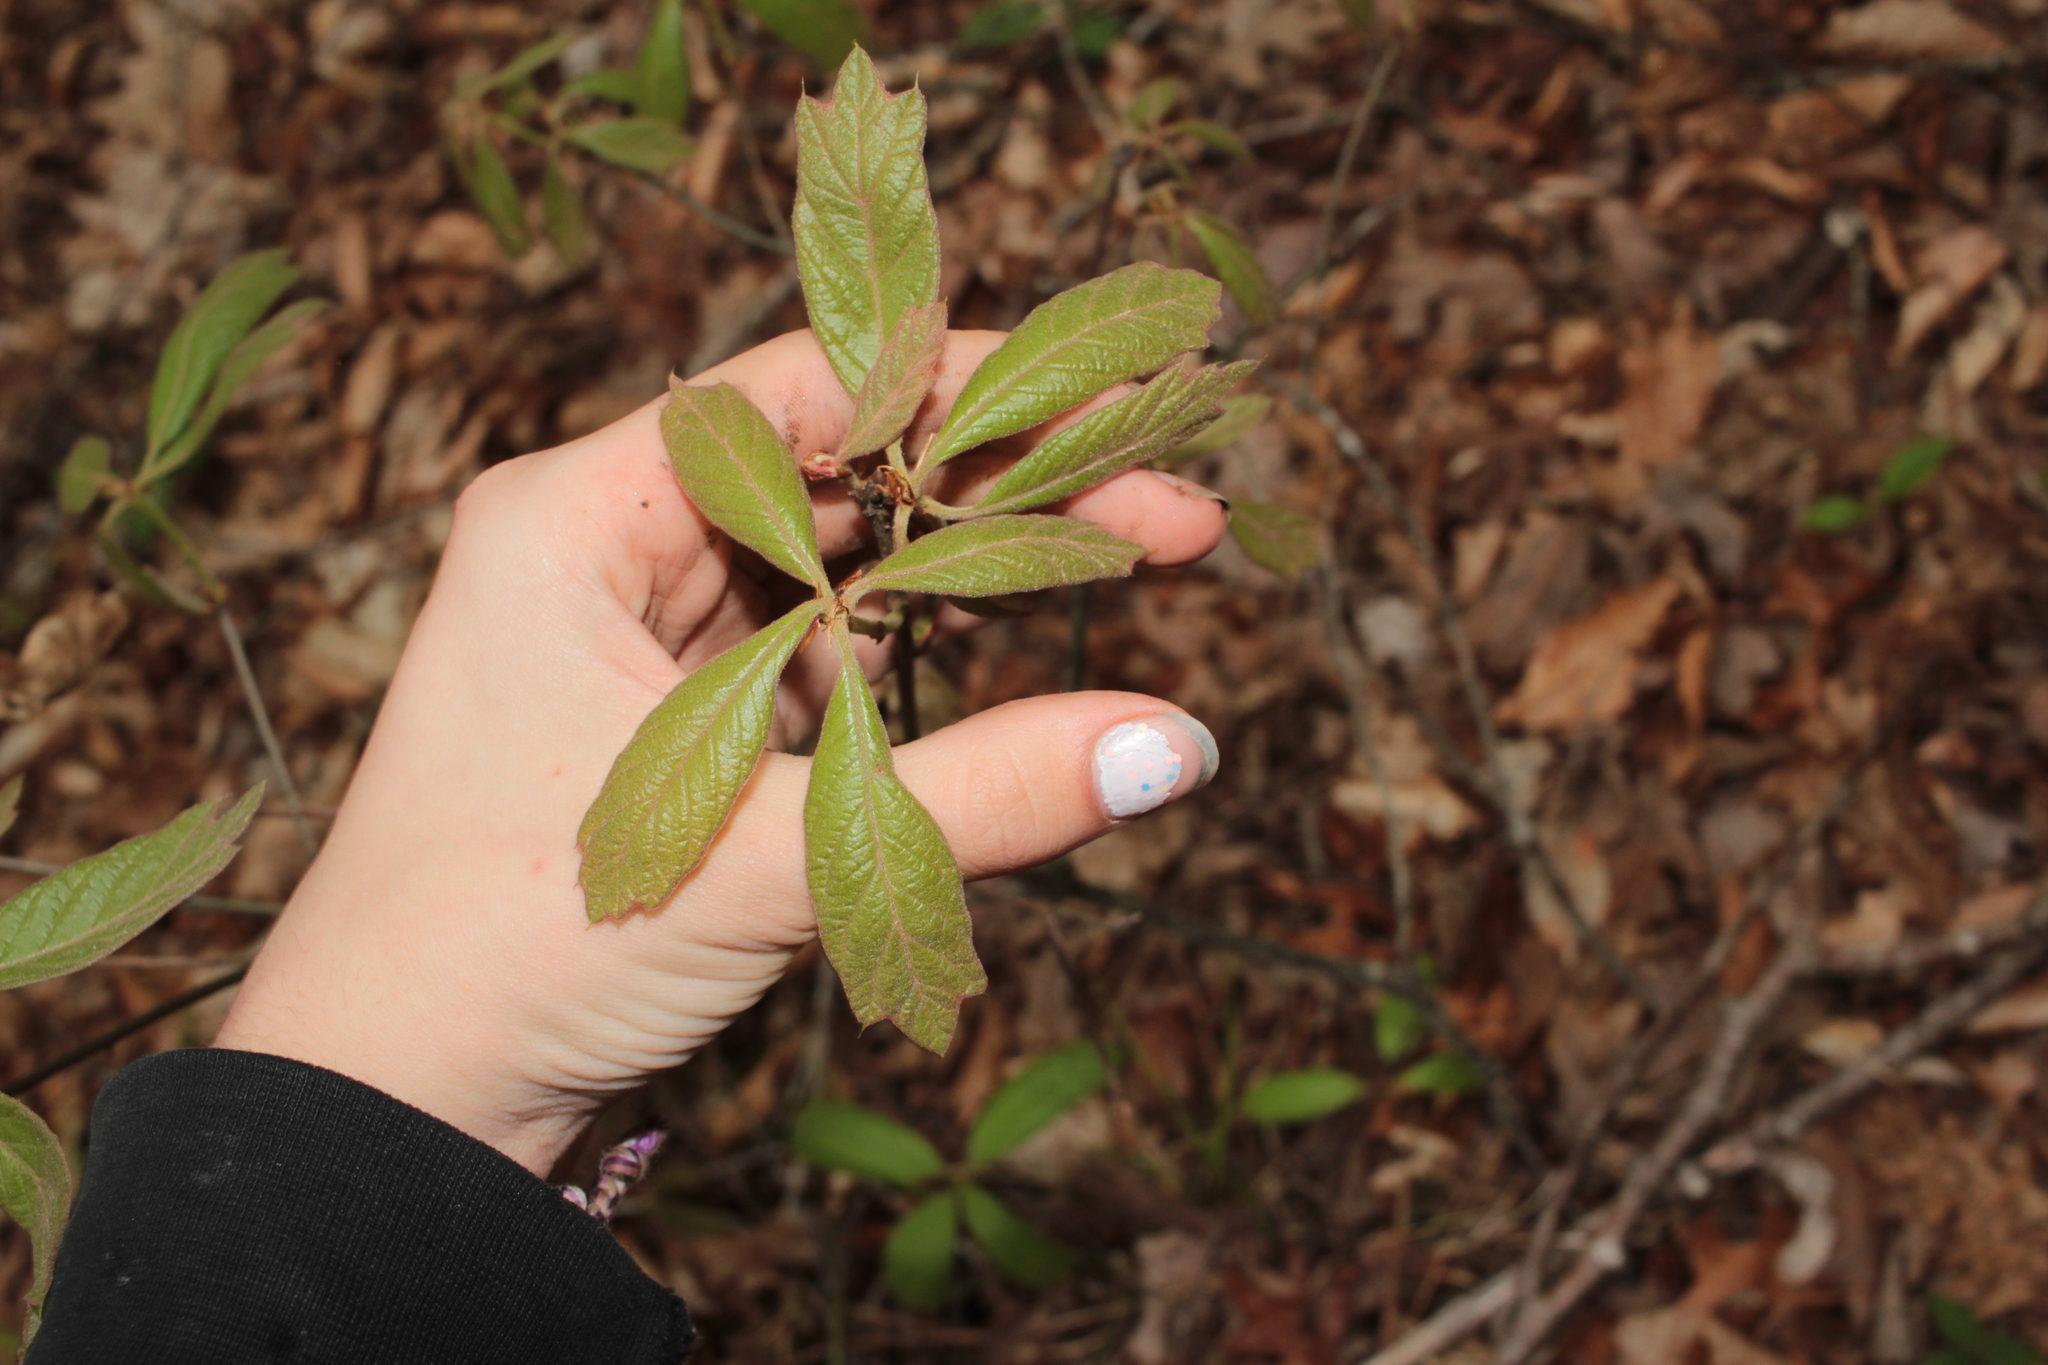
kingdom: Plantae
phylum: Tracheophyta
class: Magnoliopsida
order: Fagales
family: Fagaceae
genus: Quercus
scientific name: Quercus falcata
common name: Southern red oak
